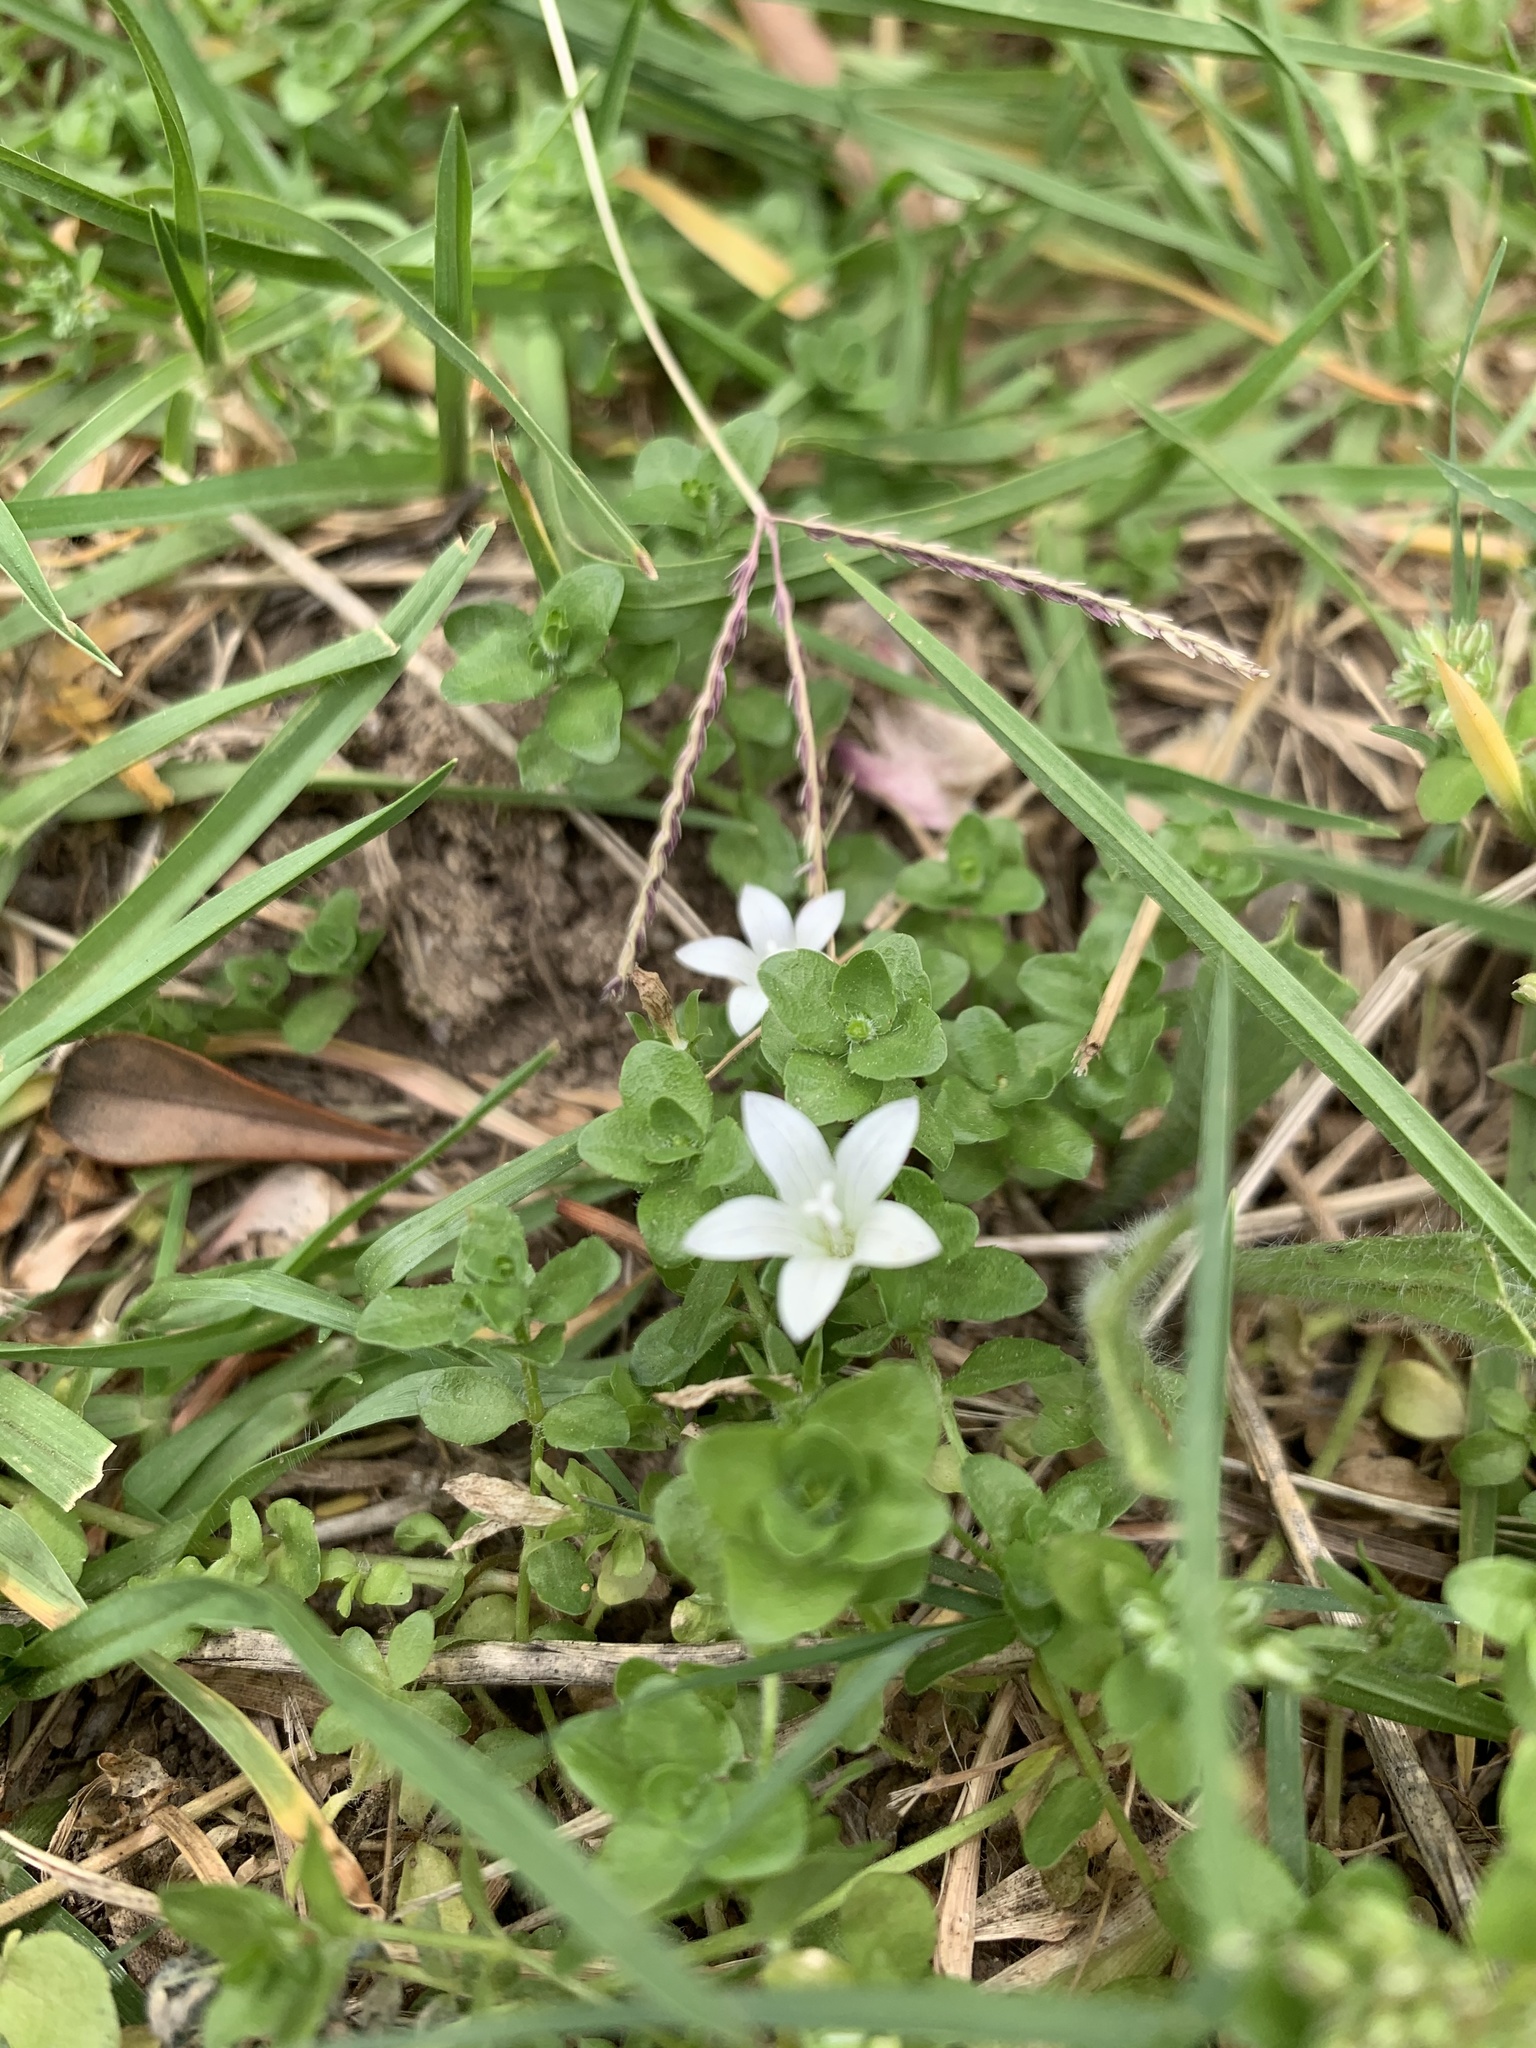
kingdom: Plantae
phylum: Tracheophyta
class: Magnoliopsida
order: Asterales
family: Campanulaceae
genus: Wahlenbergia
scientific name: Wahlenbergia procumbens
